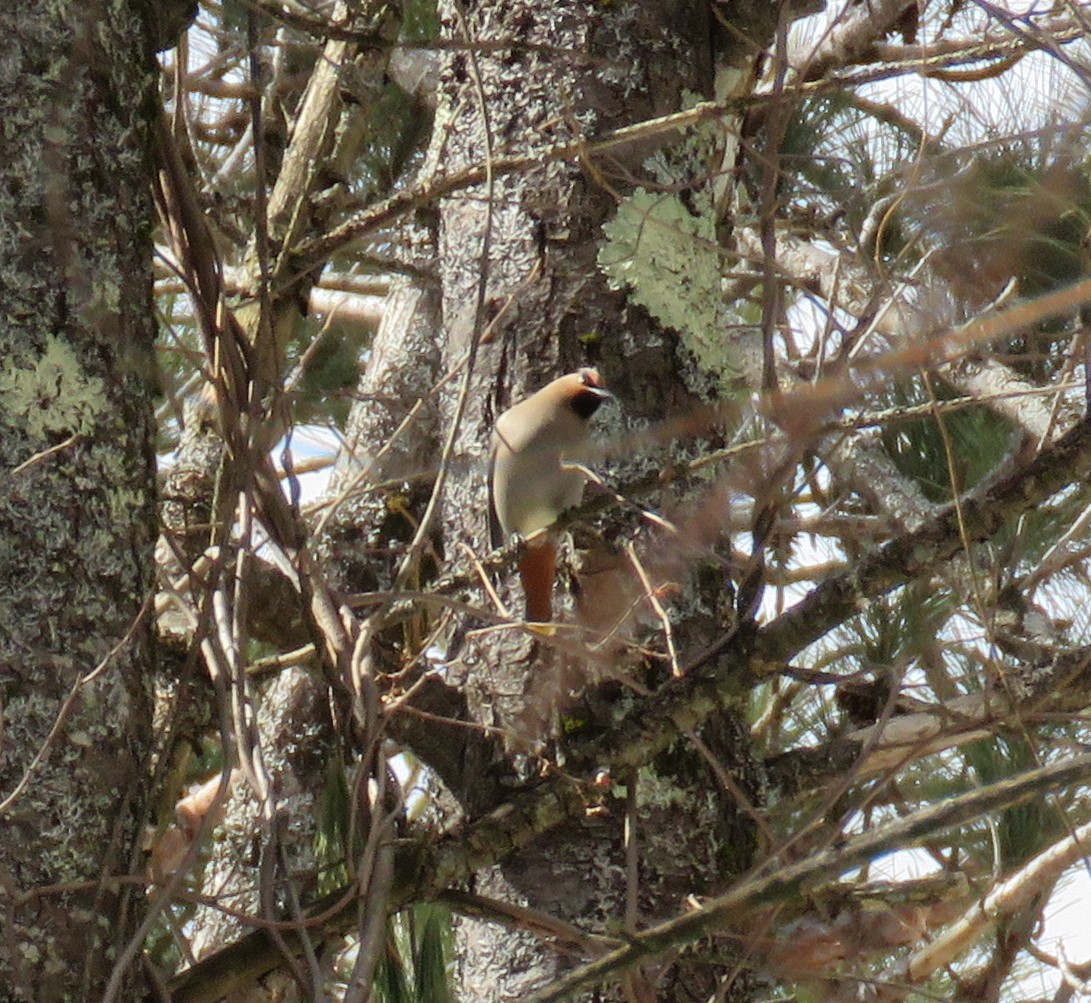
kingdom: Animalia
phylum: Chordata
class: Aves
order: Passeriformes
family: Bombycillidae
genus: Bombycilla
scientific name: Bombycilla garrulus
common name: Bohemian waxwing
